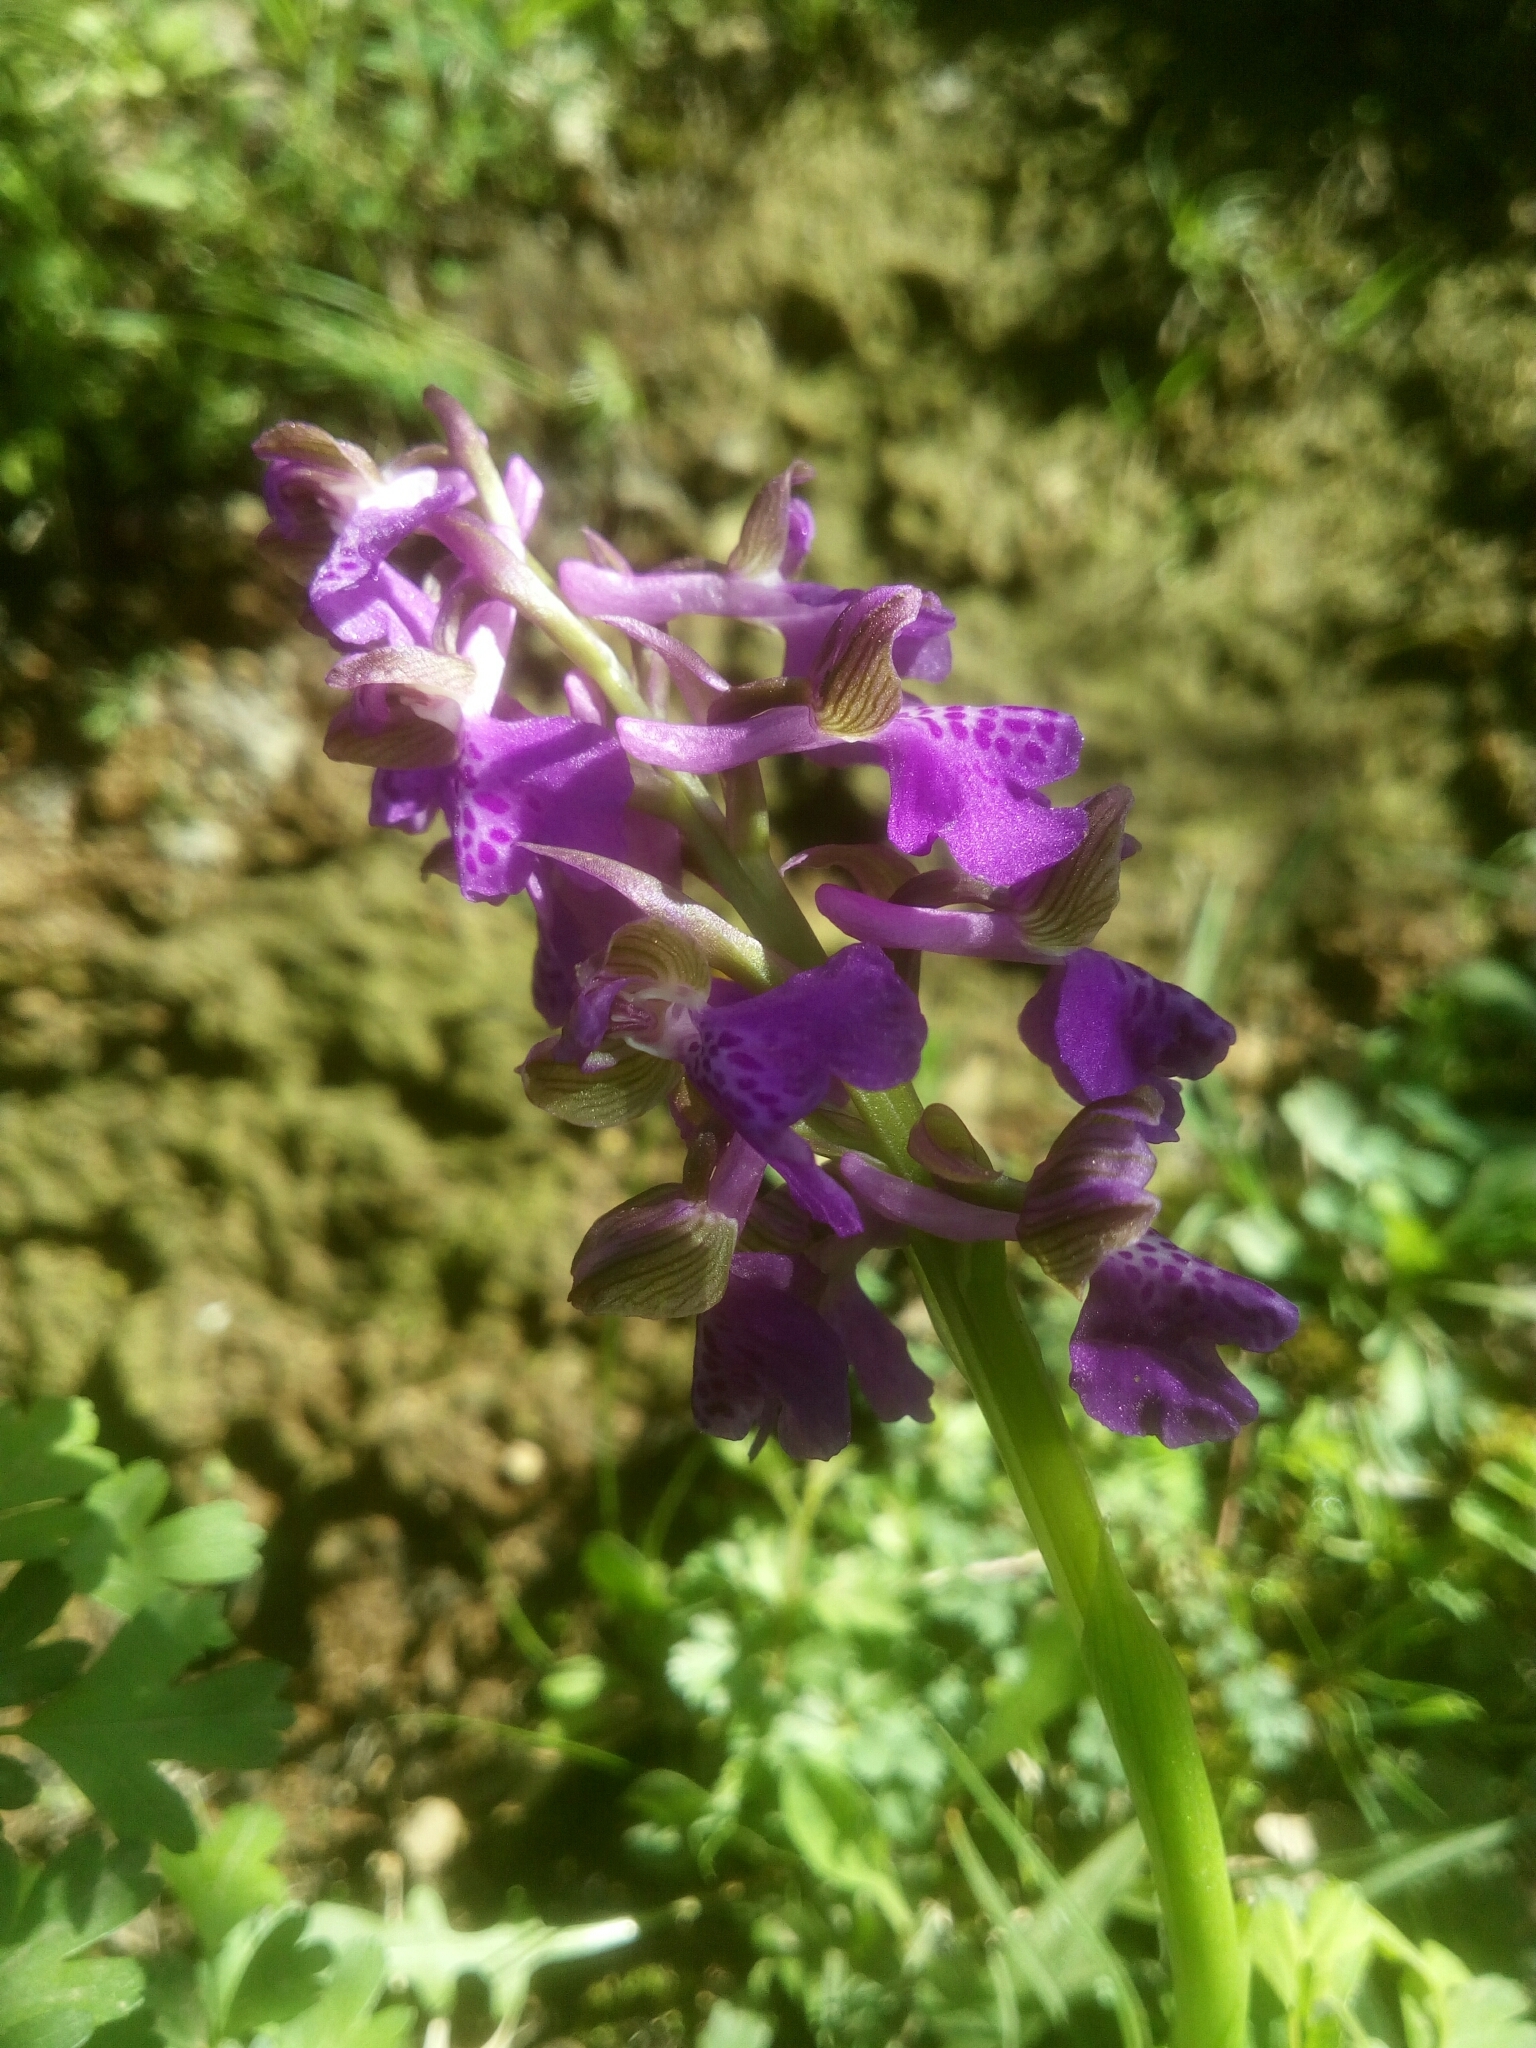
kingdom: Plantae
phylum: Tracheophyta
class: Liliopsida
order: Asparagales
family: Orchidaceae
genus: Anacamptis
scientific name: Anacamptis morio
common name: Green-winged orchid
